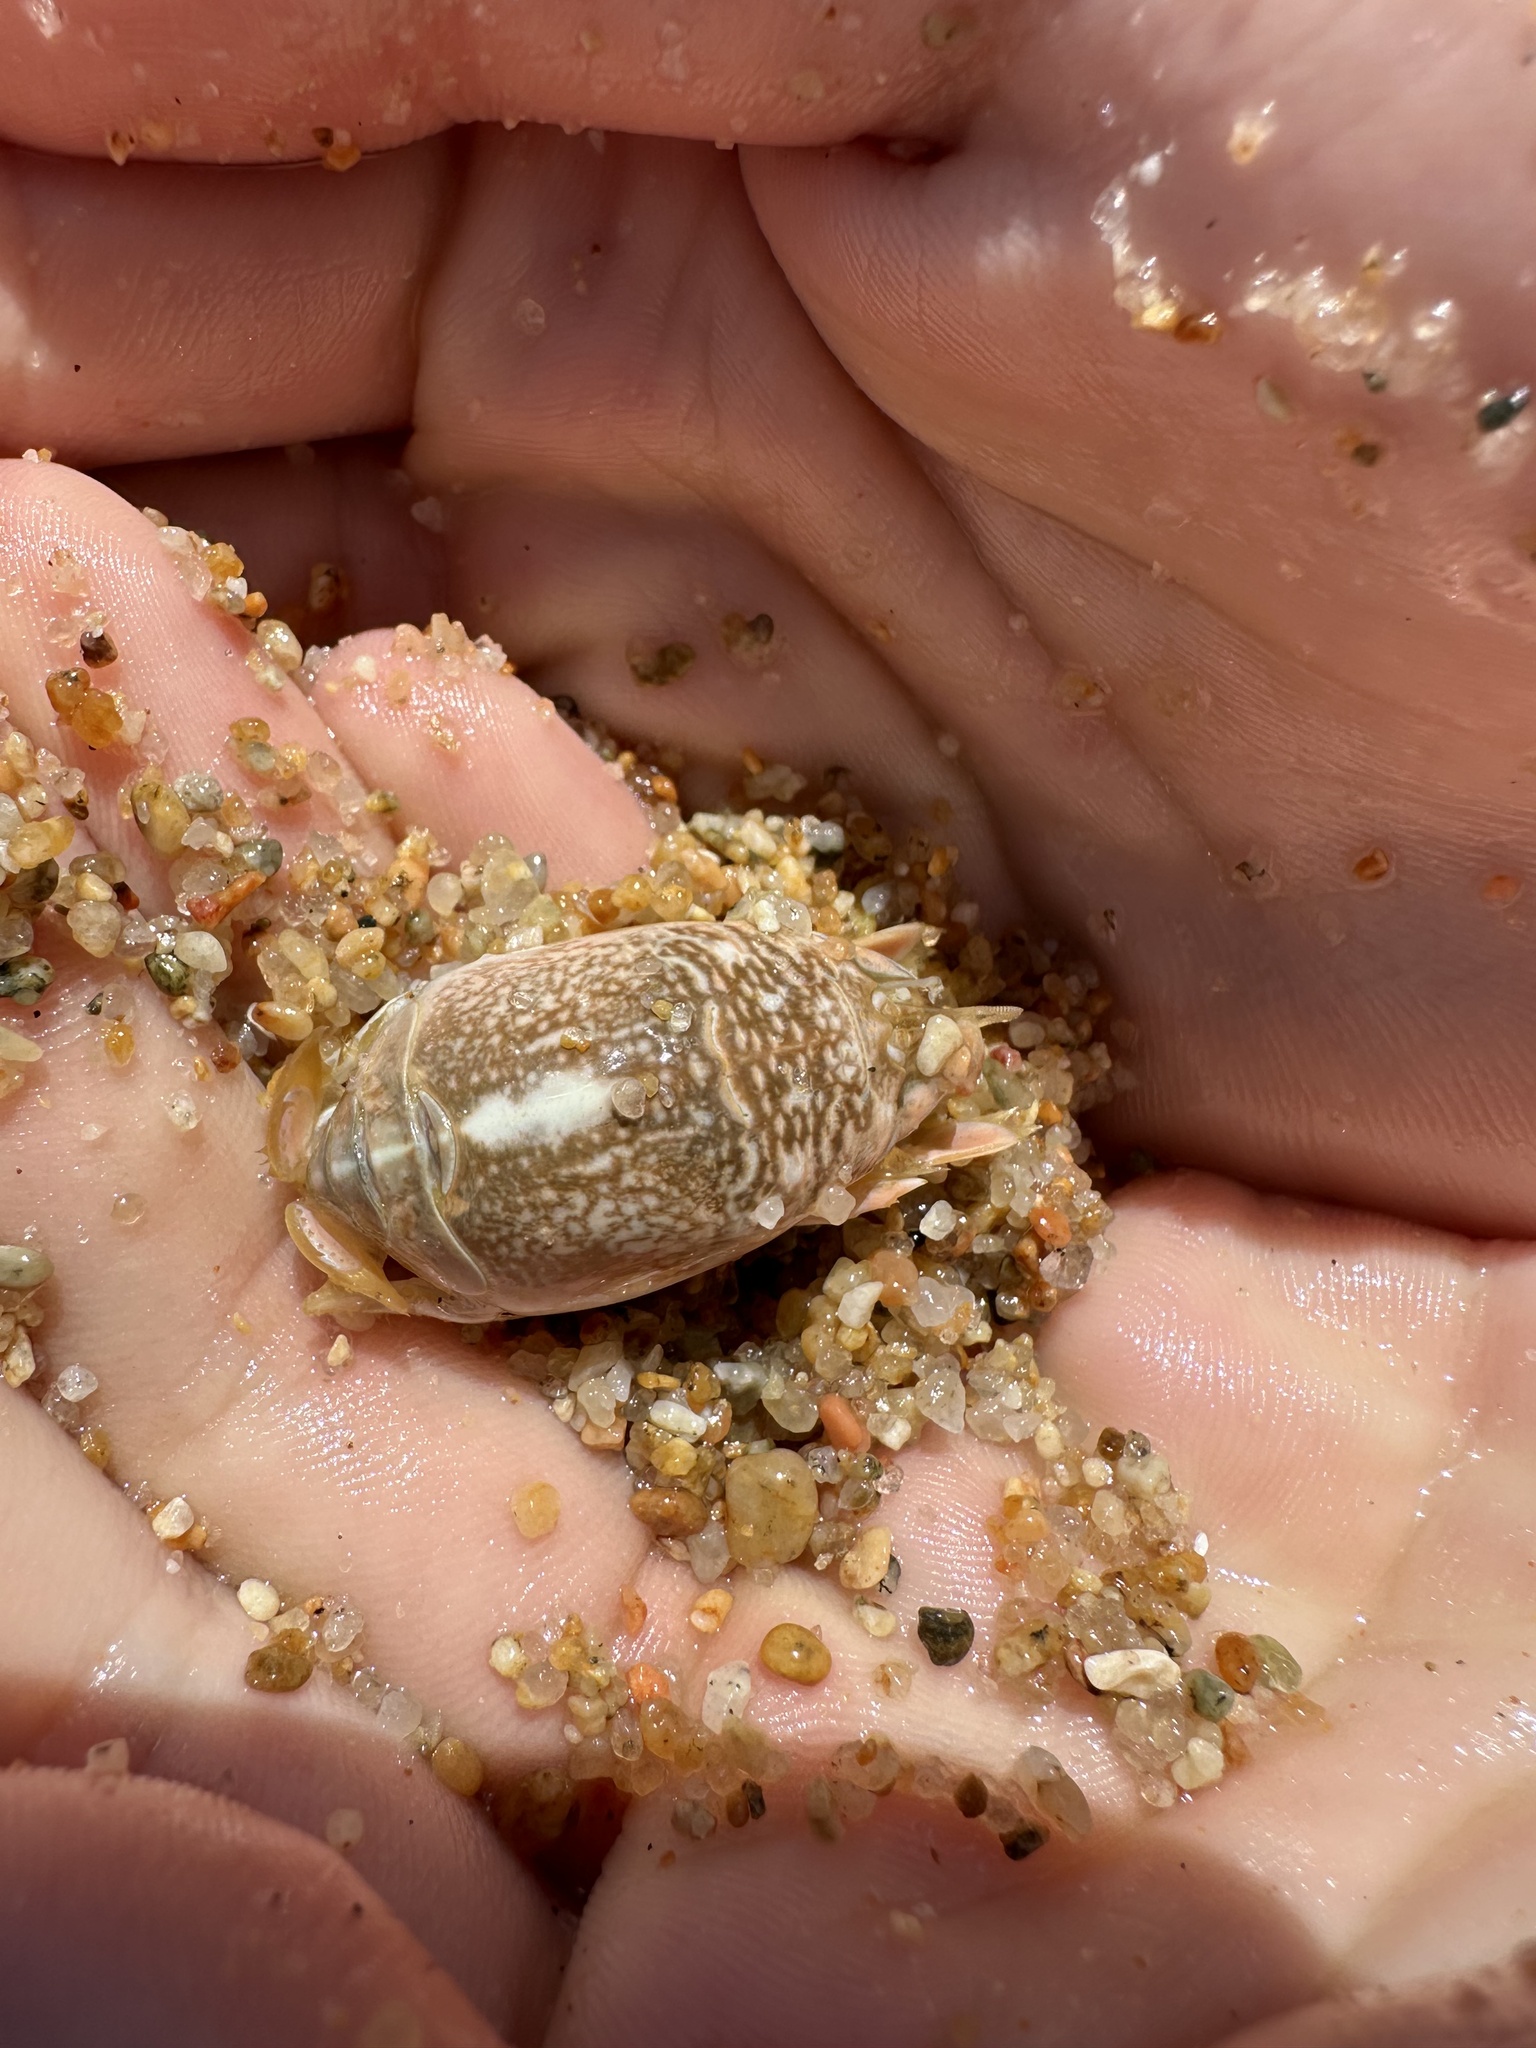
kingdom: Animalia
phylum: Arthropoda
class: Malacostraca
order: Decapoda
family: Hippidae
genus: Emerita
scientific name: Emerita analoga
